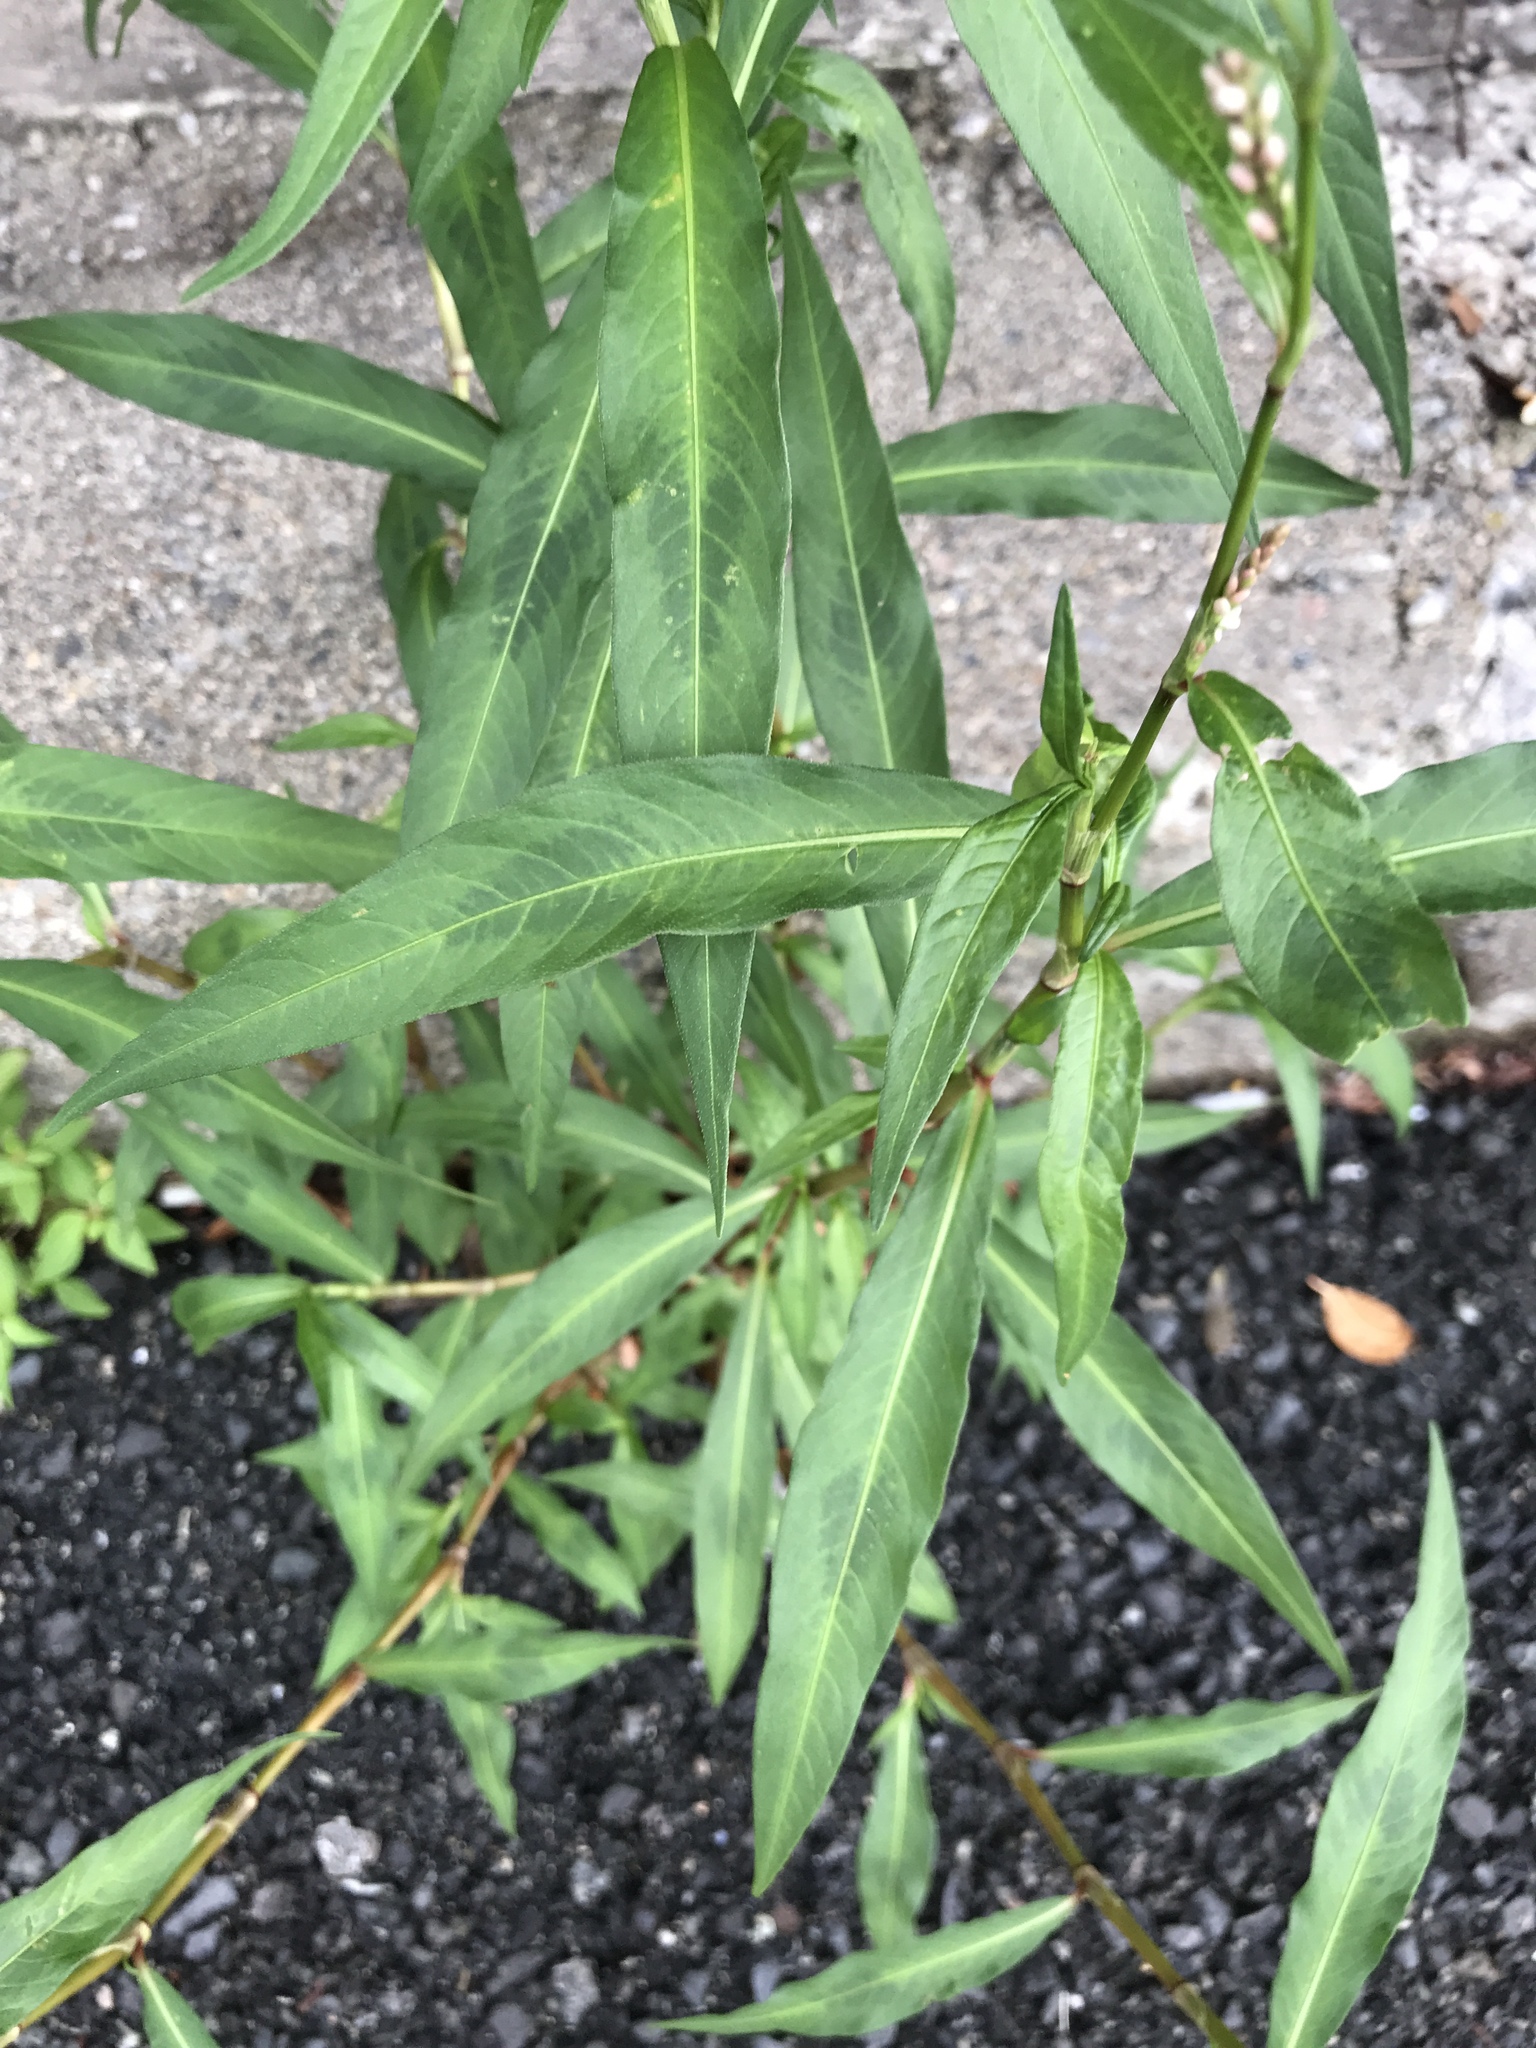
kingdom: Plantae
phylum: Tracheophyta
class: Magnoliopsida
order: Caryophyllales
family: Polygonaceae
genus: Persicaria
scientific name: Persicaria lapathifolia
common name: Curlytop knotweed
